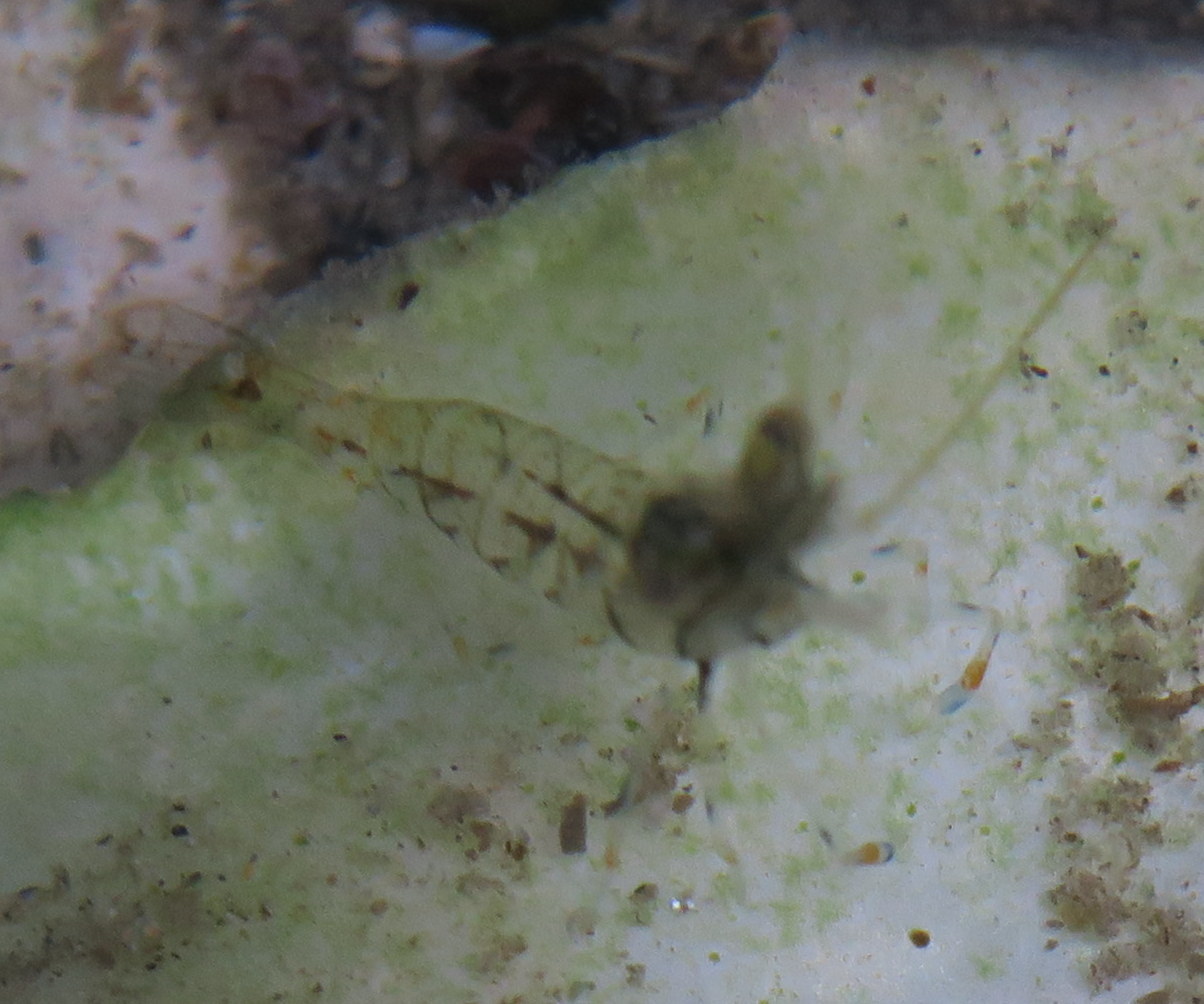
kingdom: Animalia
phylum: Arthropoda
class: Malacostraca
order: Decapoda
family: Palaemonidae
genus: Palaemon
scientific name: Palaemon elegans
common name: Grass prawm
